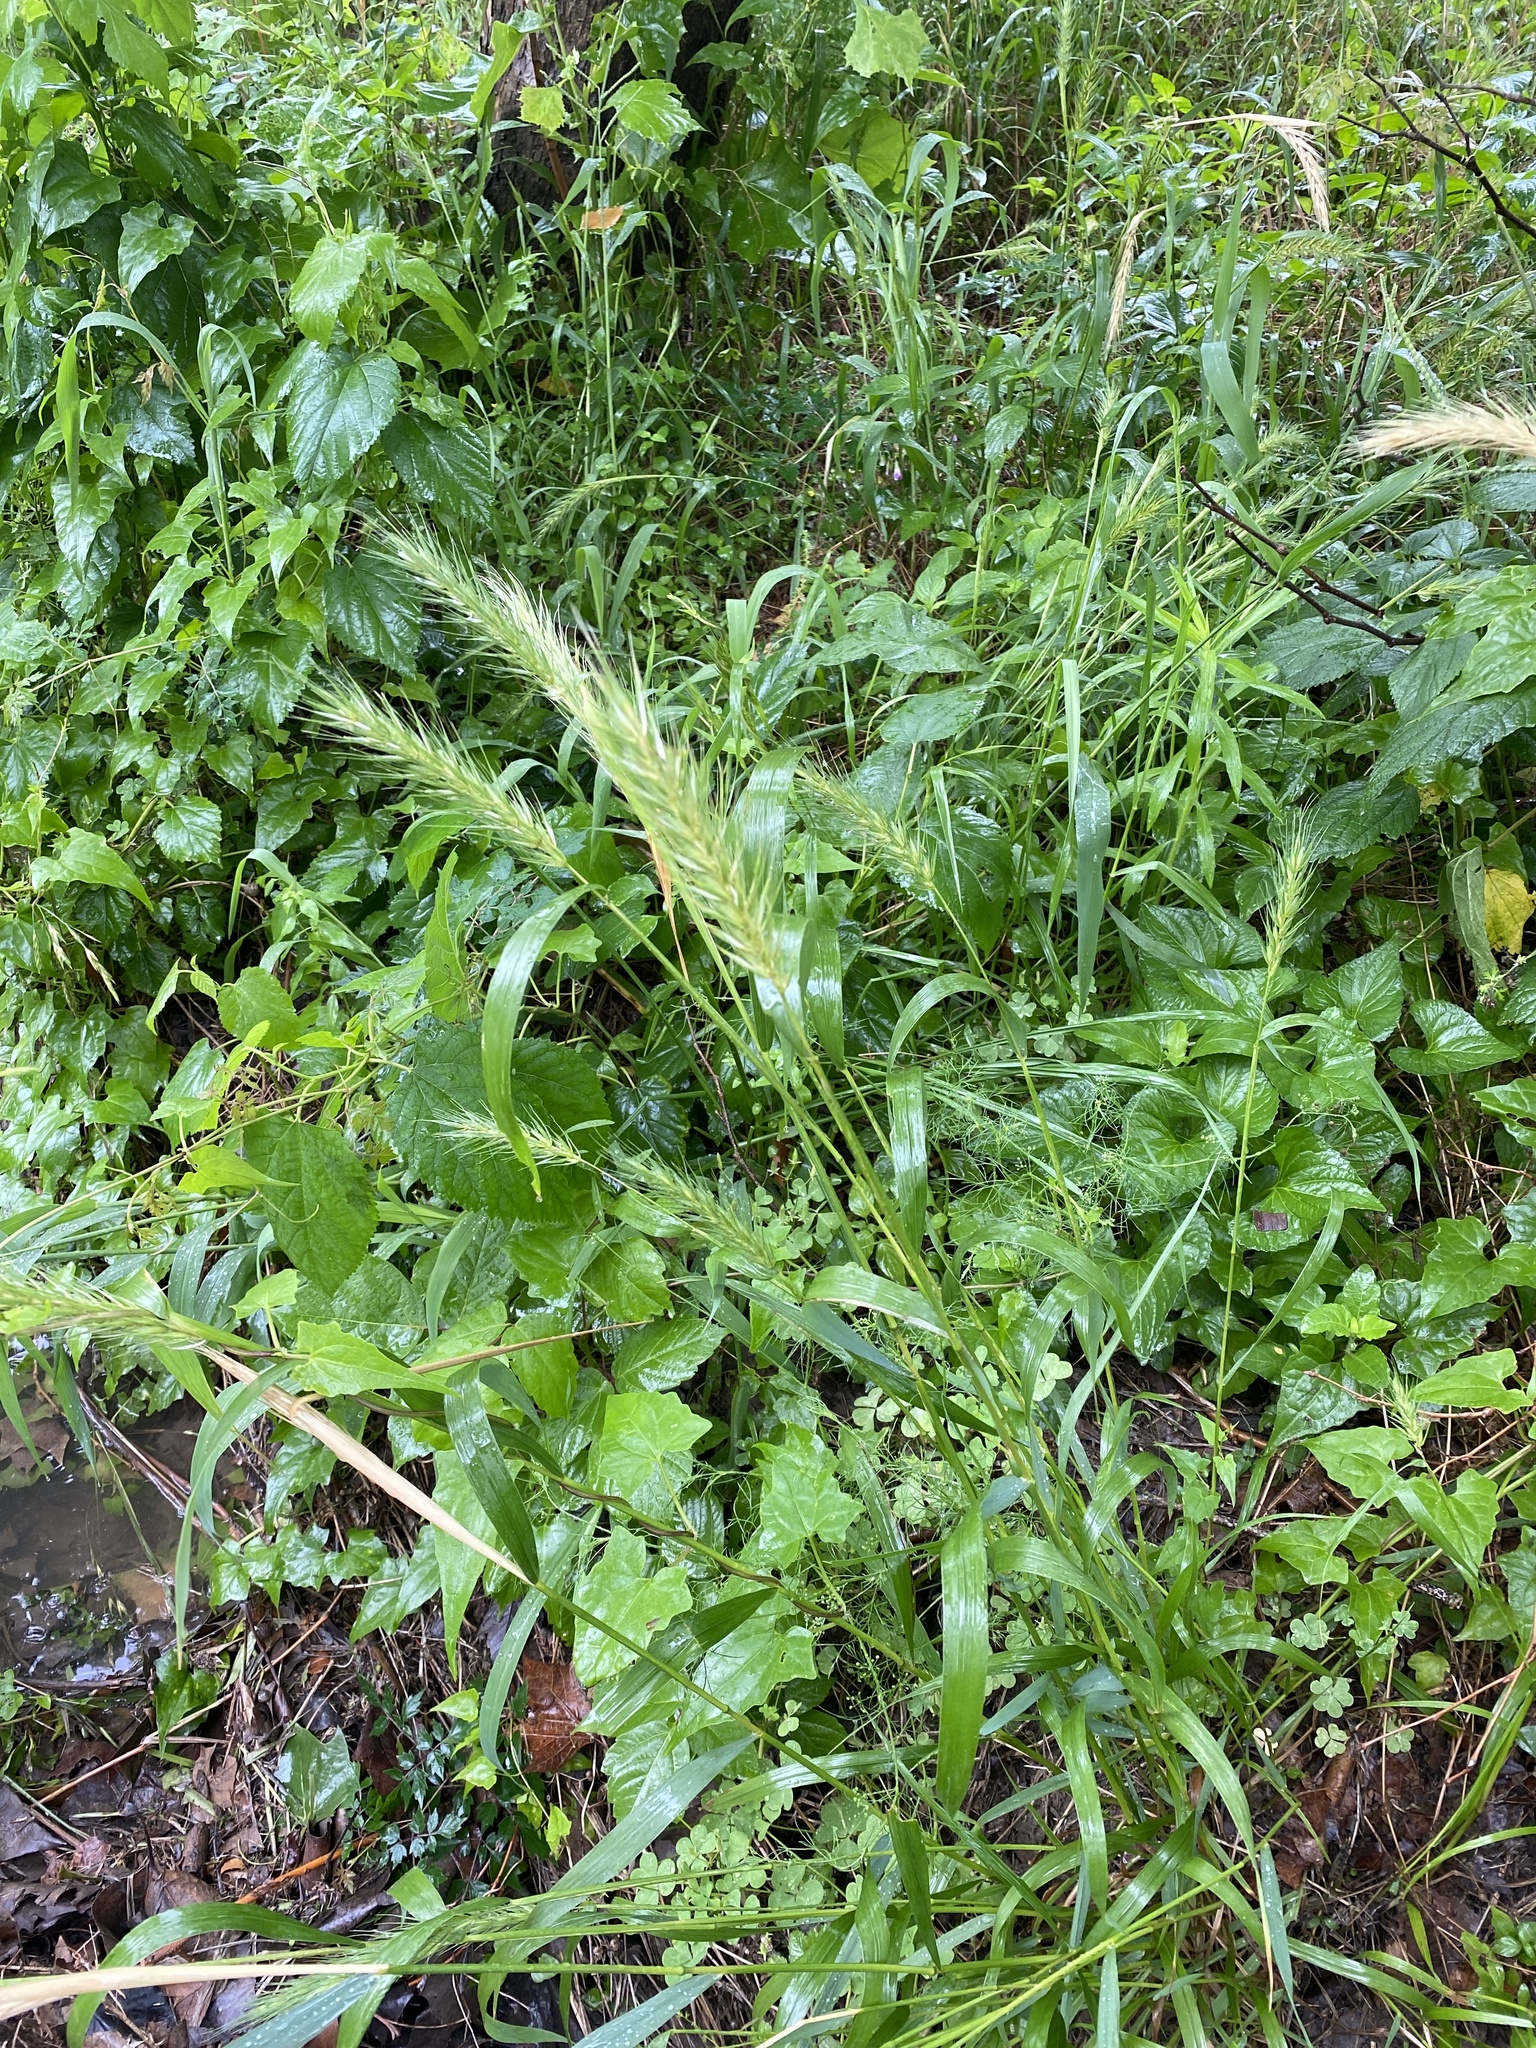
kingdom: Plantae
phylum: Tracheophyta
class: Liliopsida
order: Poales
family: Poaceae
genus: Elymus
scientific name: Elymus virginicus
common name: Common eastern wildrye
